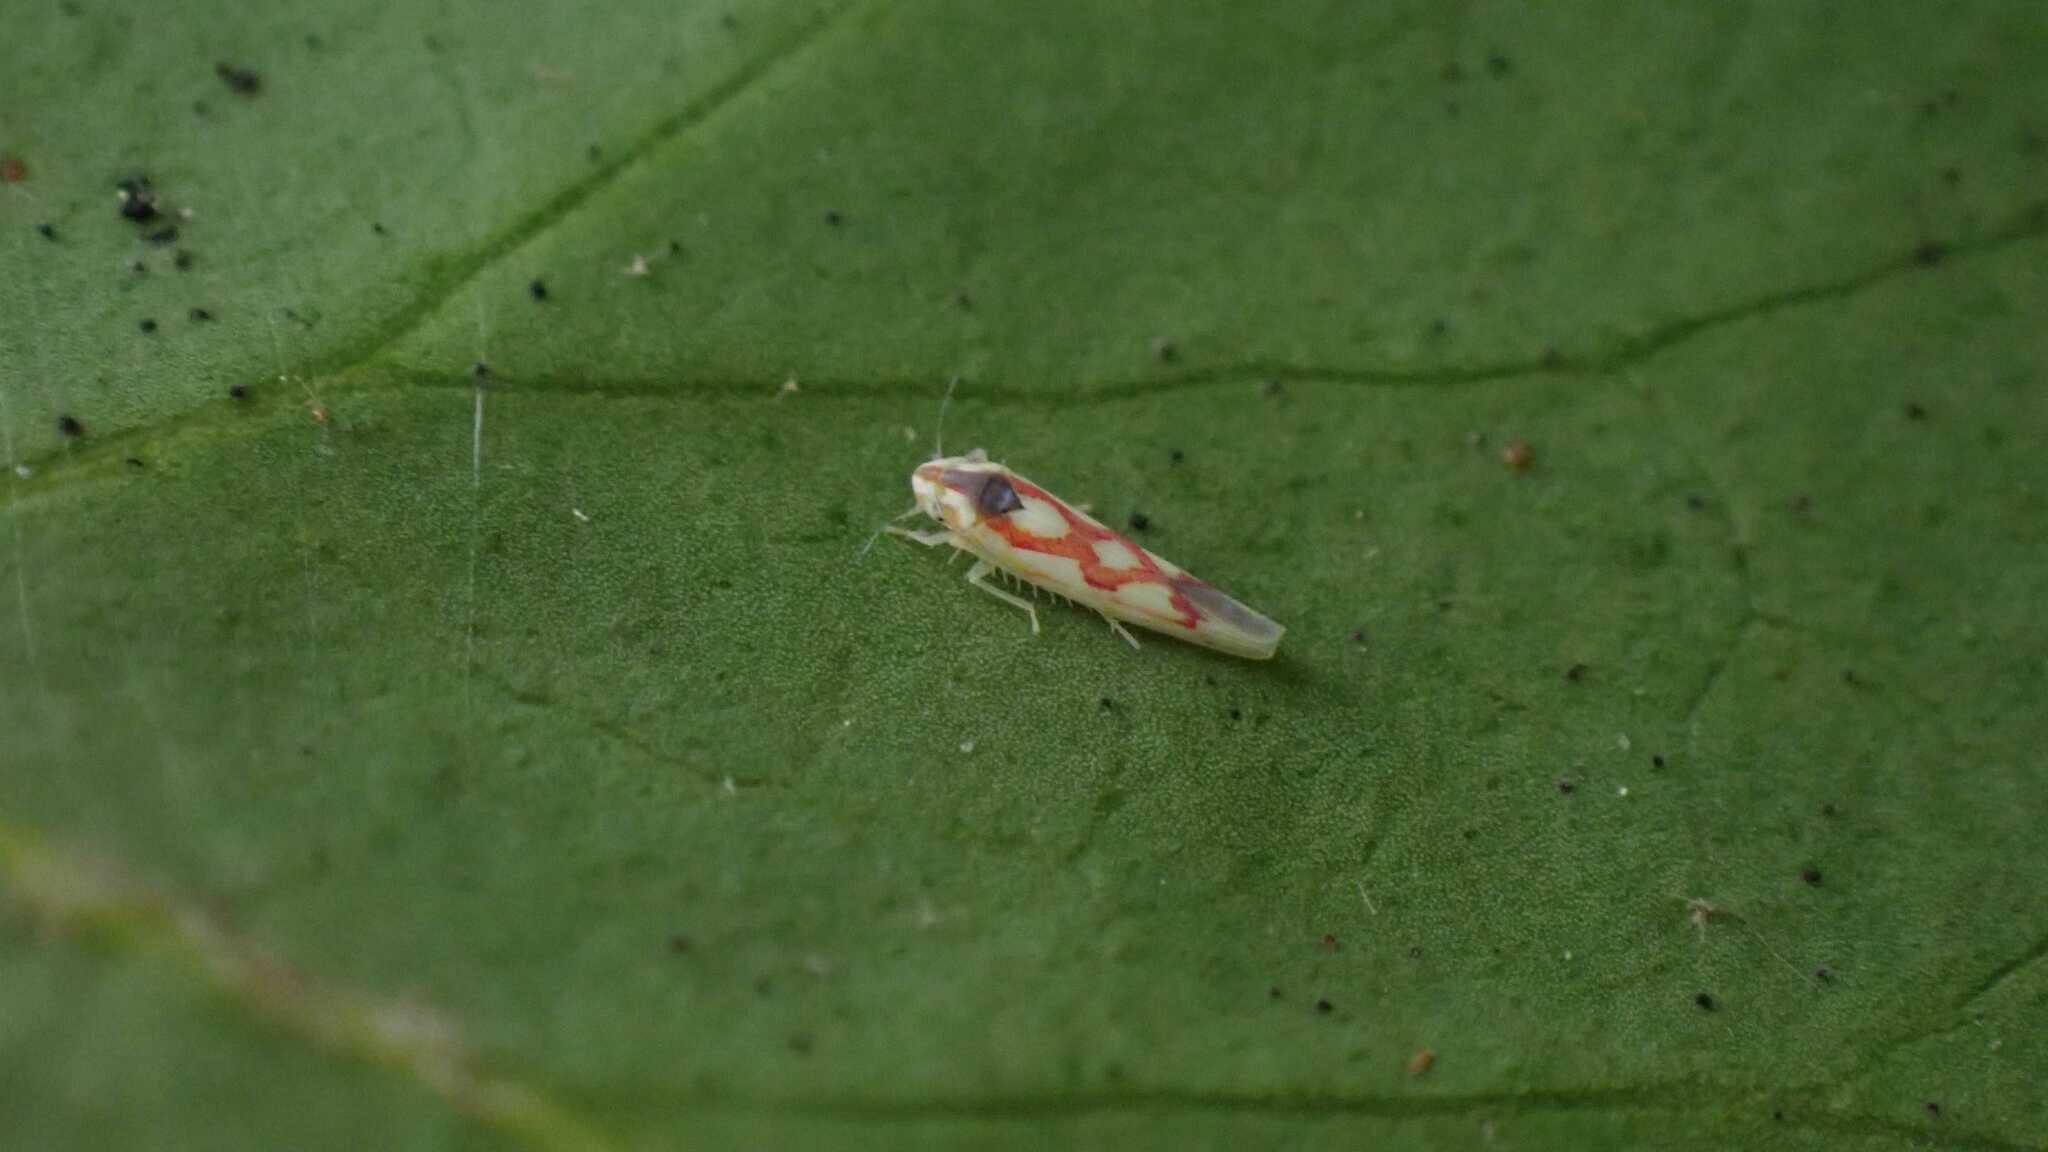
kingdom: Animalia
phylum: Arthropoda
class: Insecta
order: Hemiptera
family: Cicadellidae
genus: Zygina
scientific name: Zygina flammigera
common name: Leafhopper
